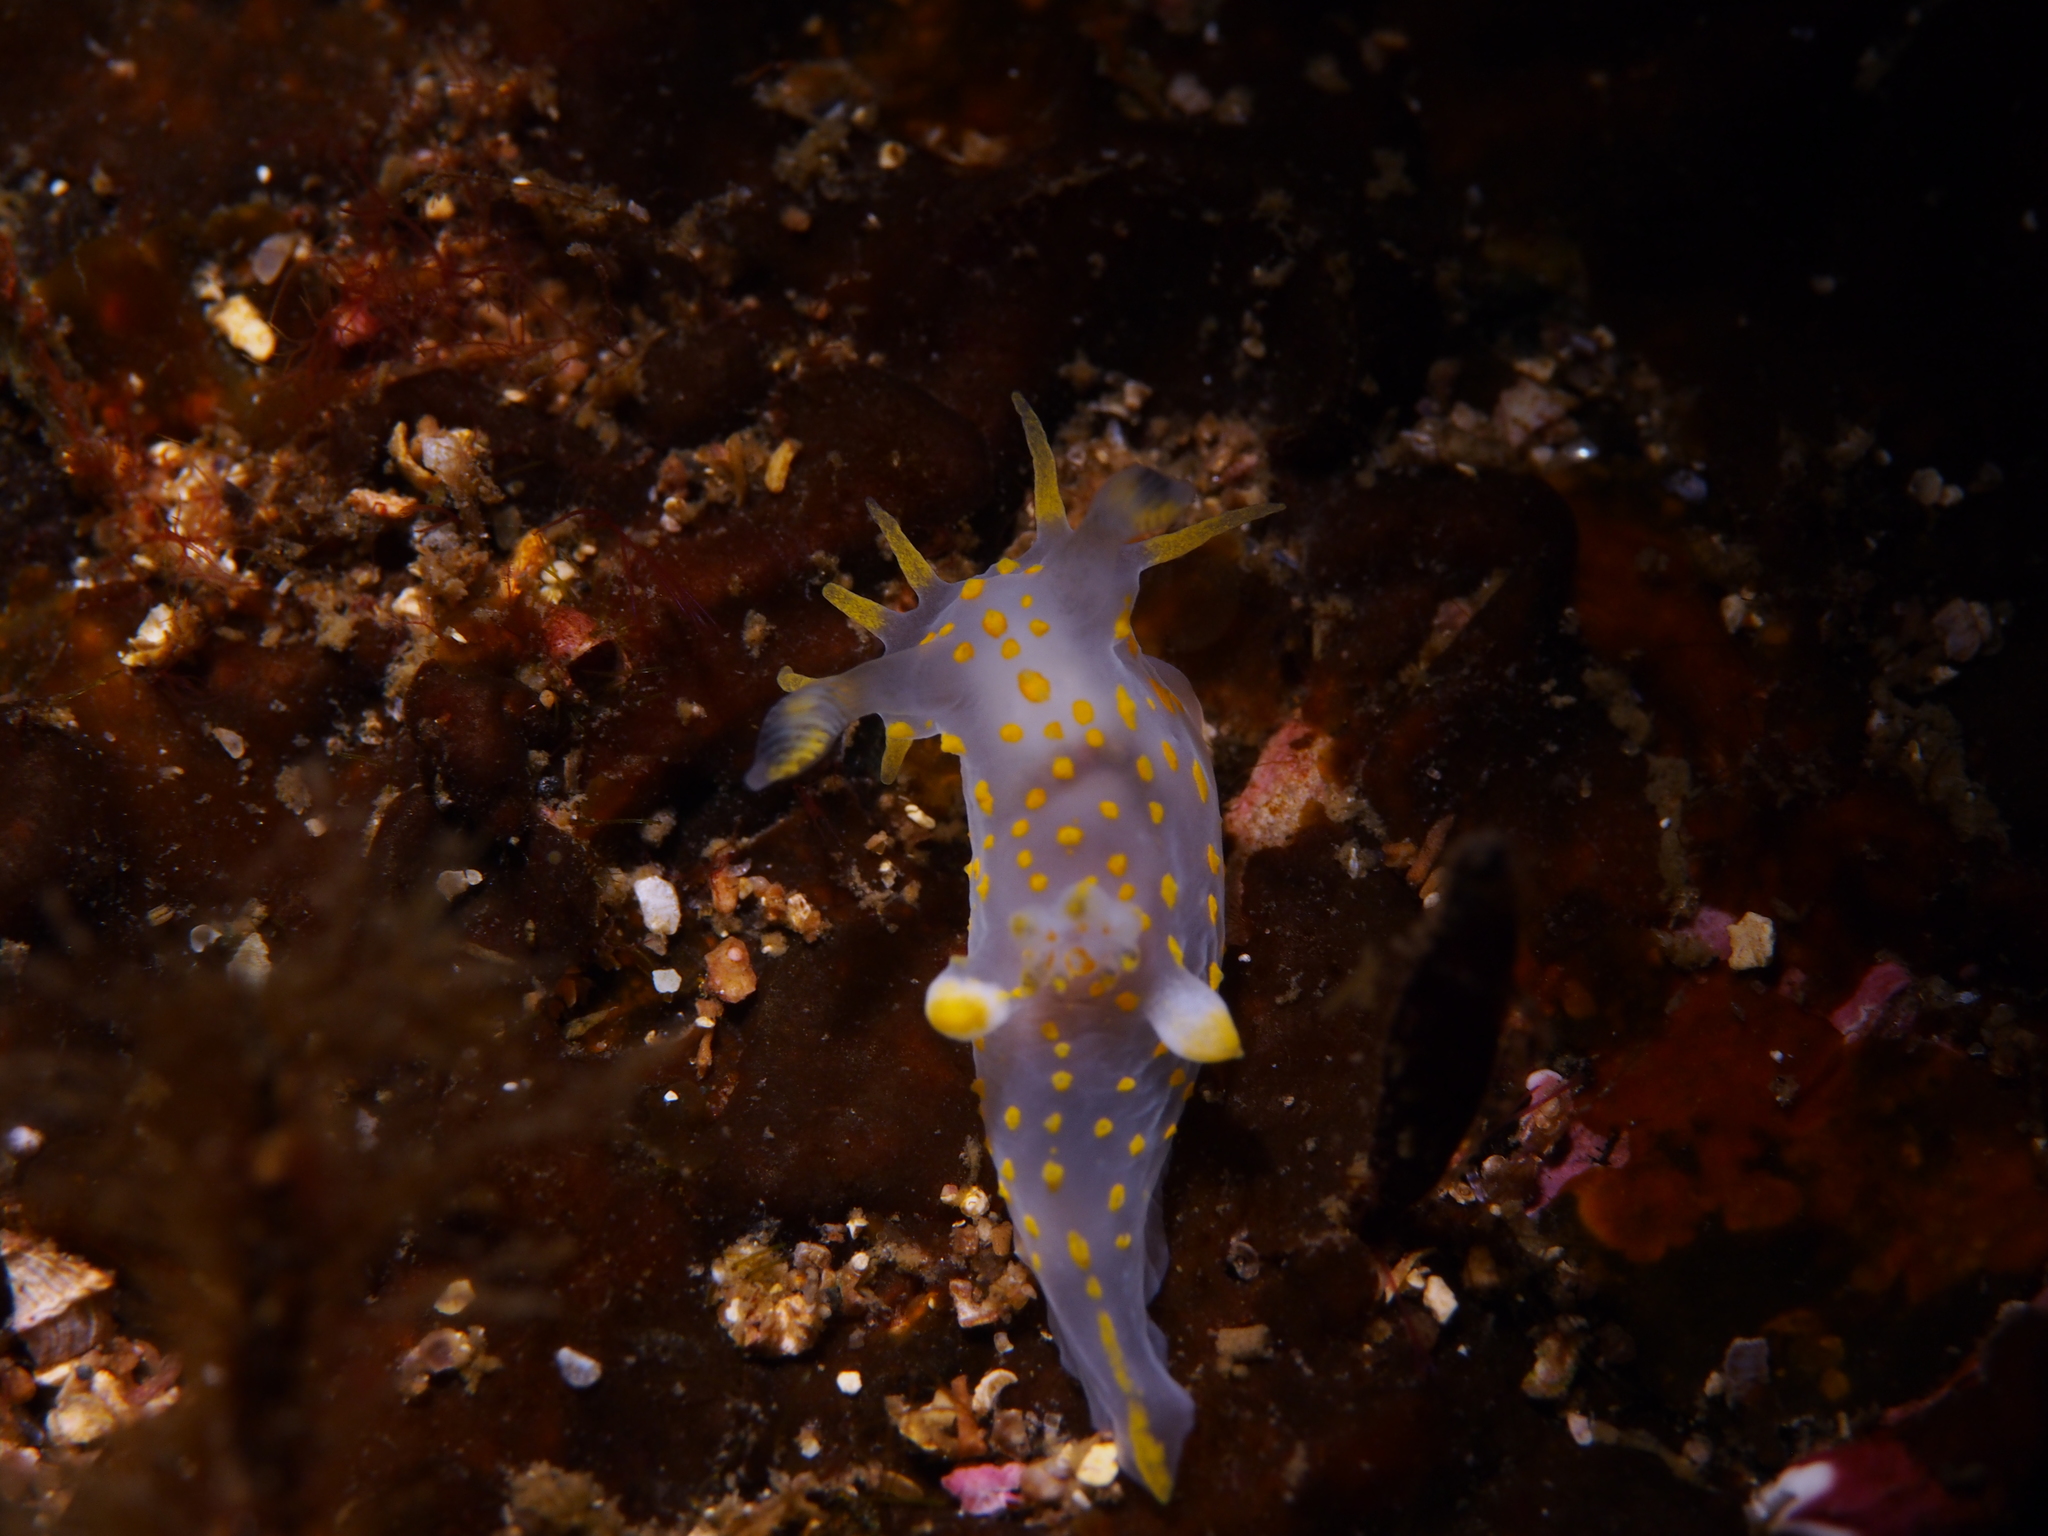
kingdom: Animalia
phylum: Mollusca
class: Gastropoda
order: Nudibranchia
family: Polyceridae
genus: Polycera
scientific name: Polycera quadrilineata
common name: Four-striped polycera
